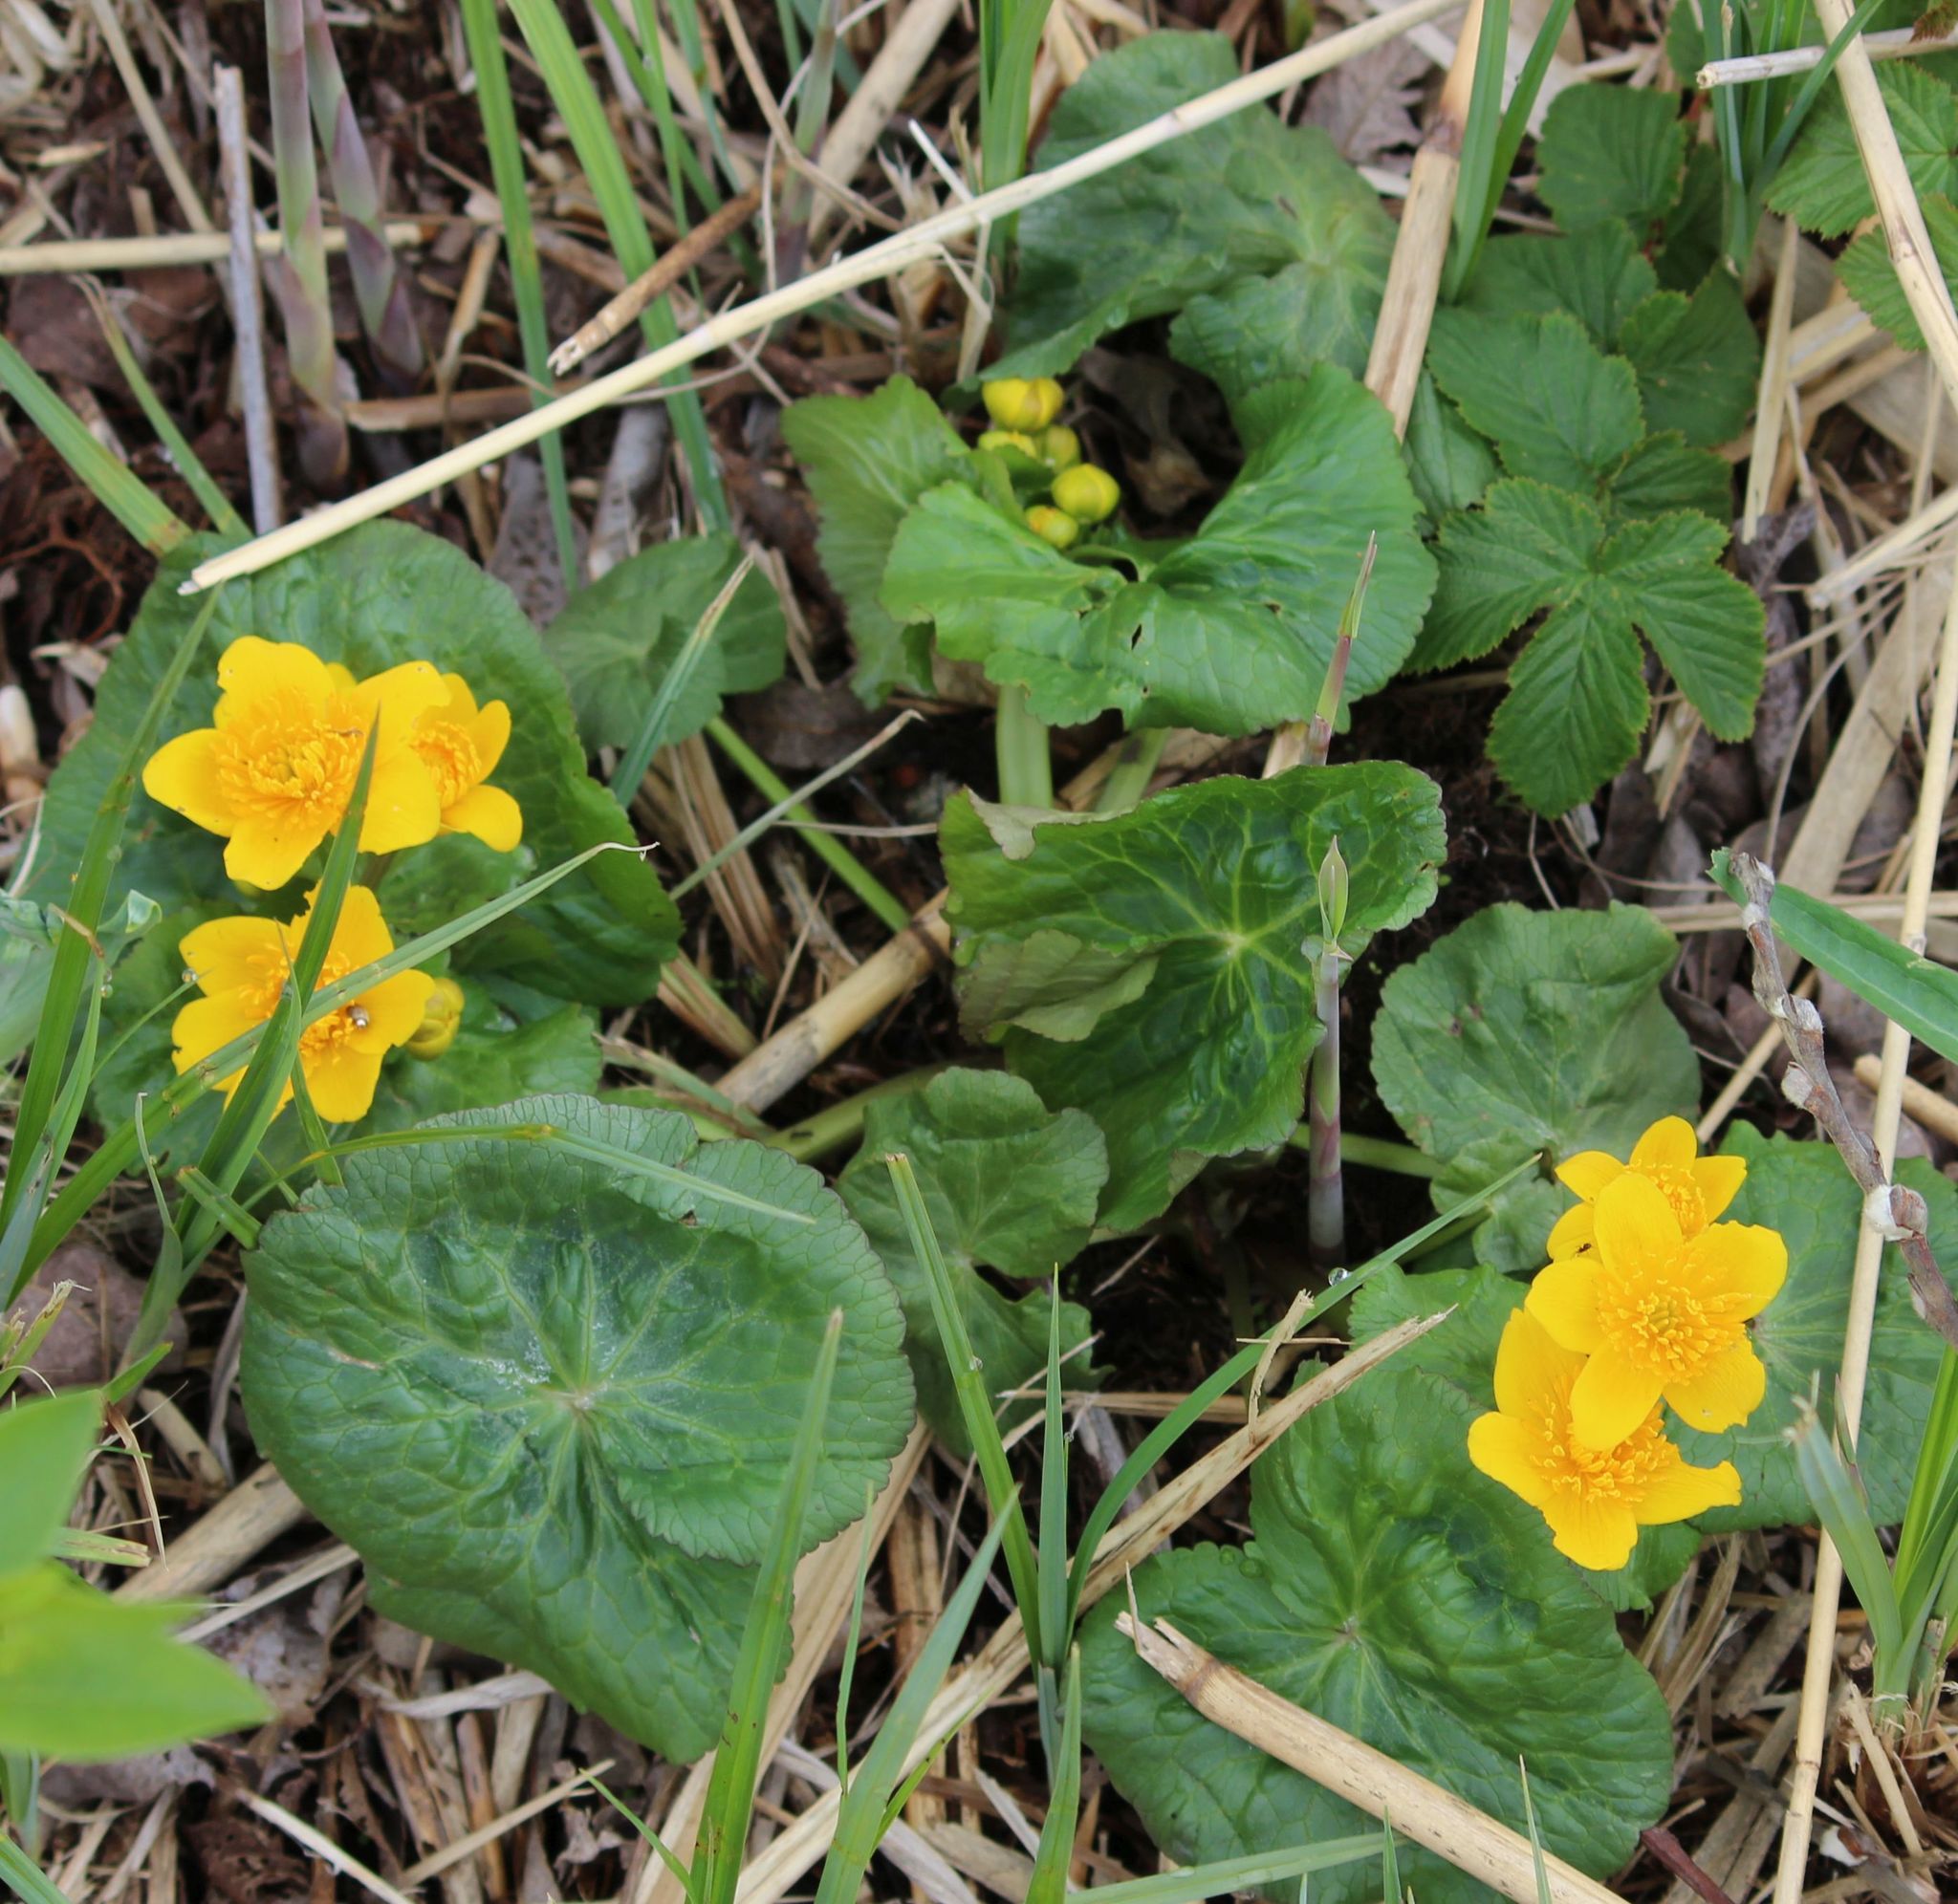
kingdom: Plantae
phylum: Tracheophyta
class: Magnoliopsida
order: Ranunculales
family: Ranunculaceae
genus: Caltha
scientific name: Caltha palustris
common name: Marsh marigold
